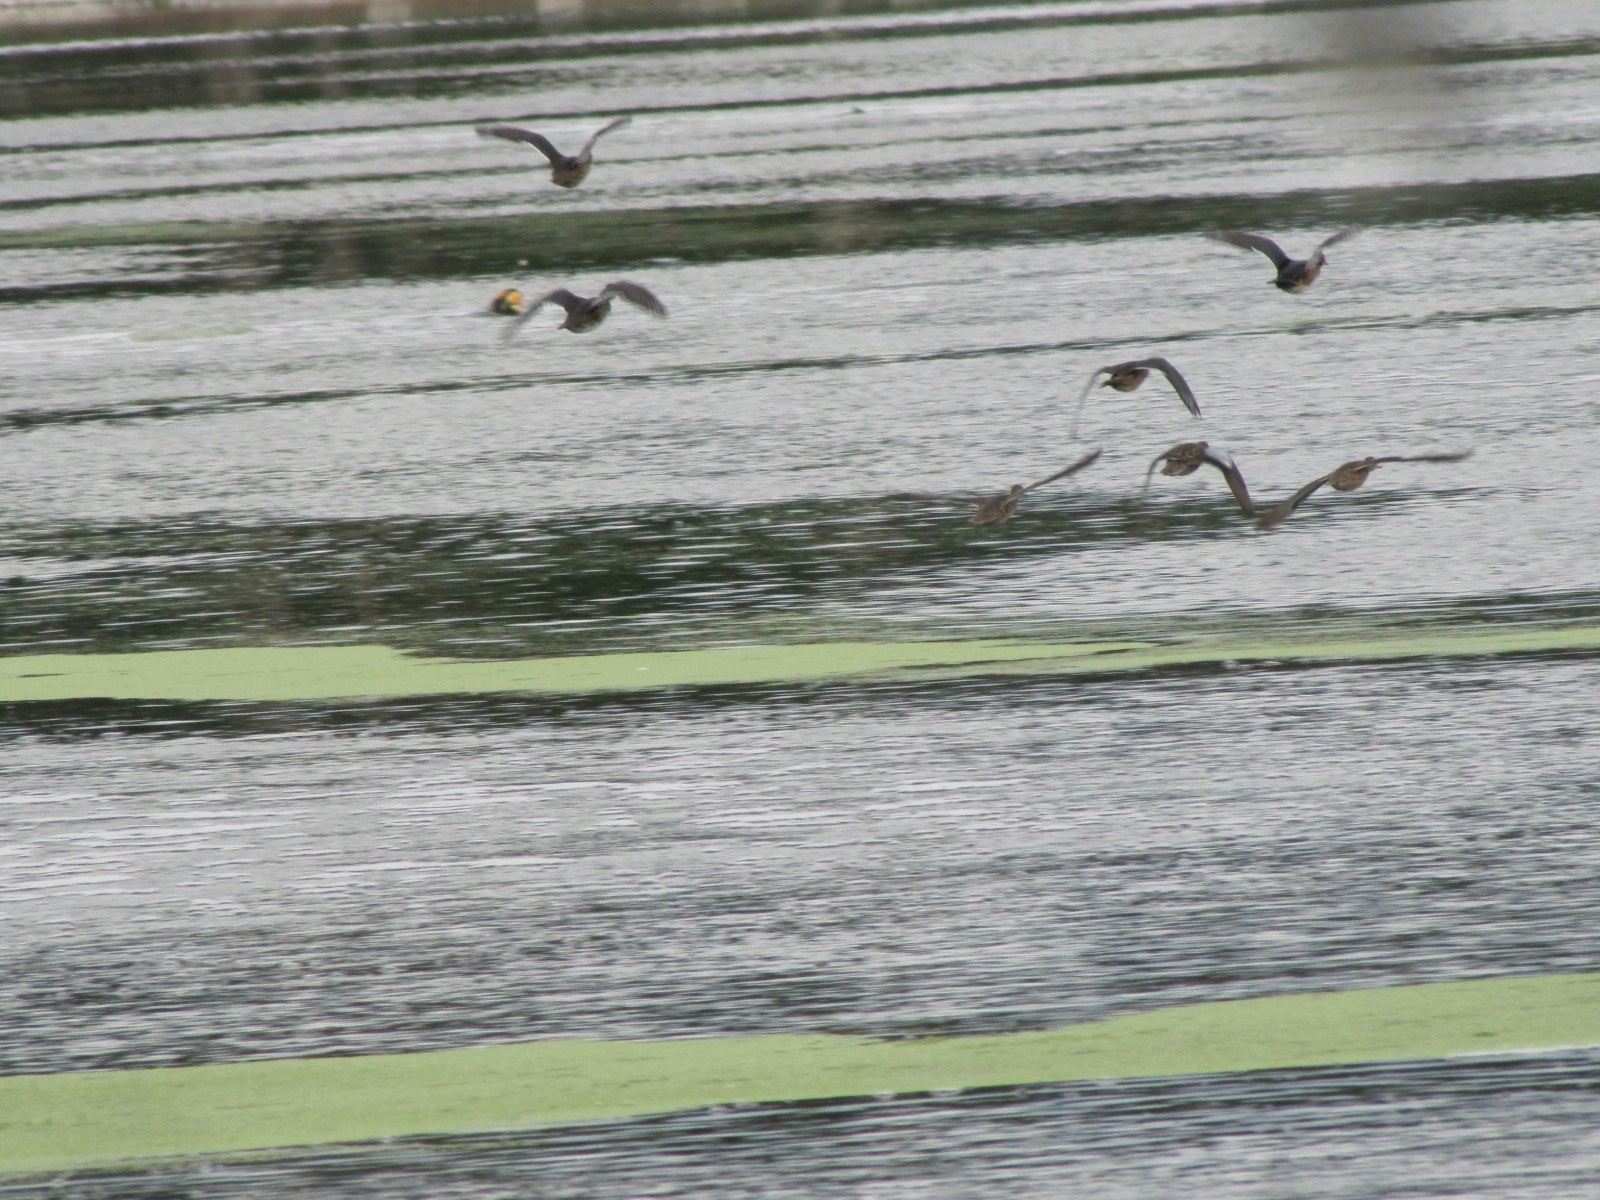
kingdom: Animalia
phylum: Chordata
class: Aves
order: Anseriformes
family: Anatidae
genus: Spatula
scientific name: Spatula discors
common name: Blue-winged teal
